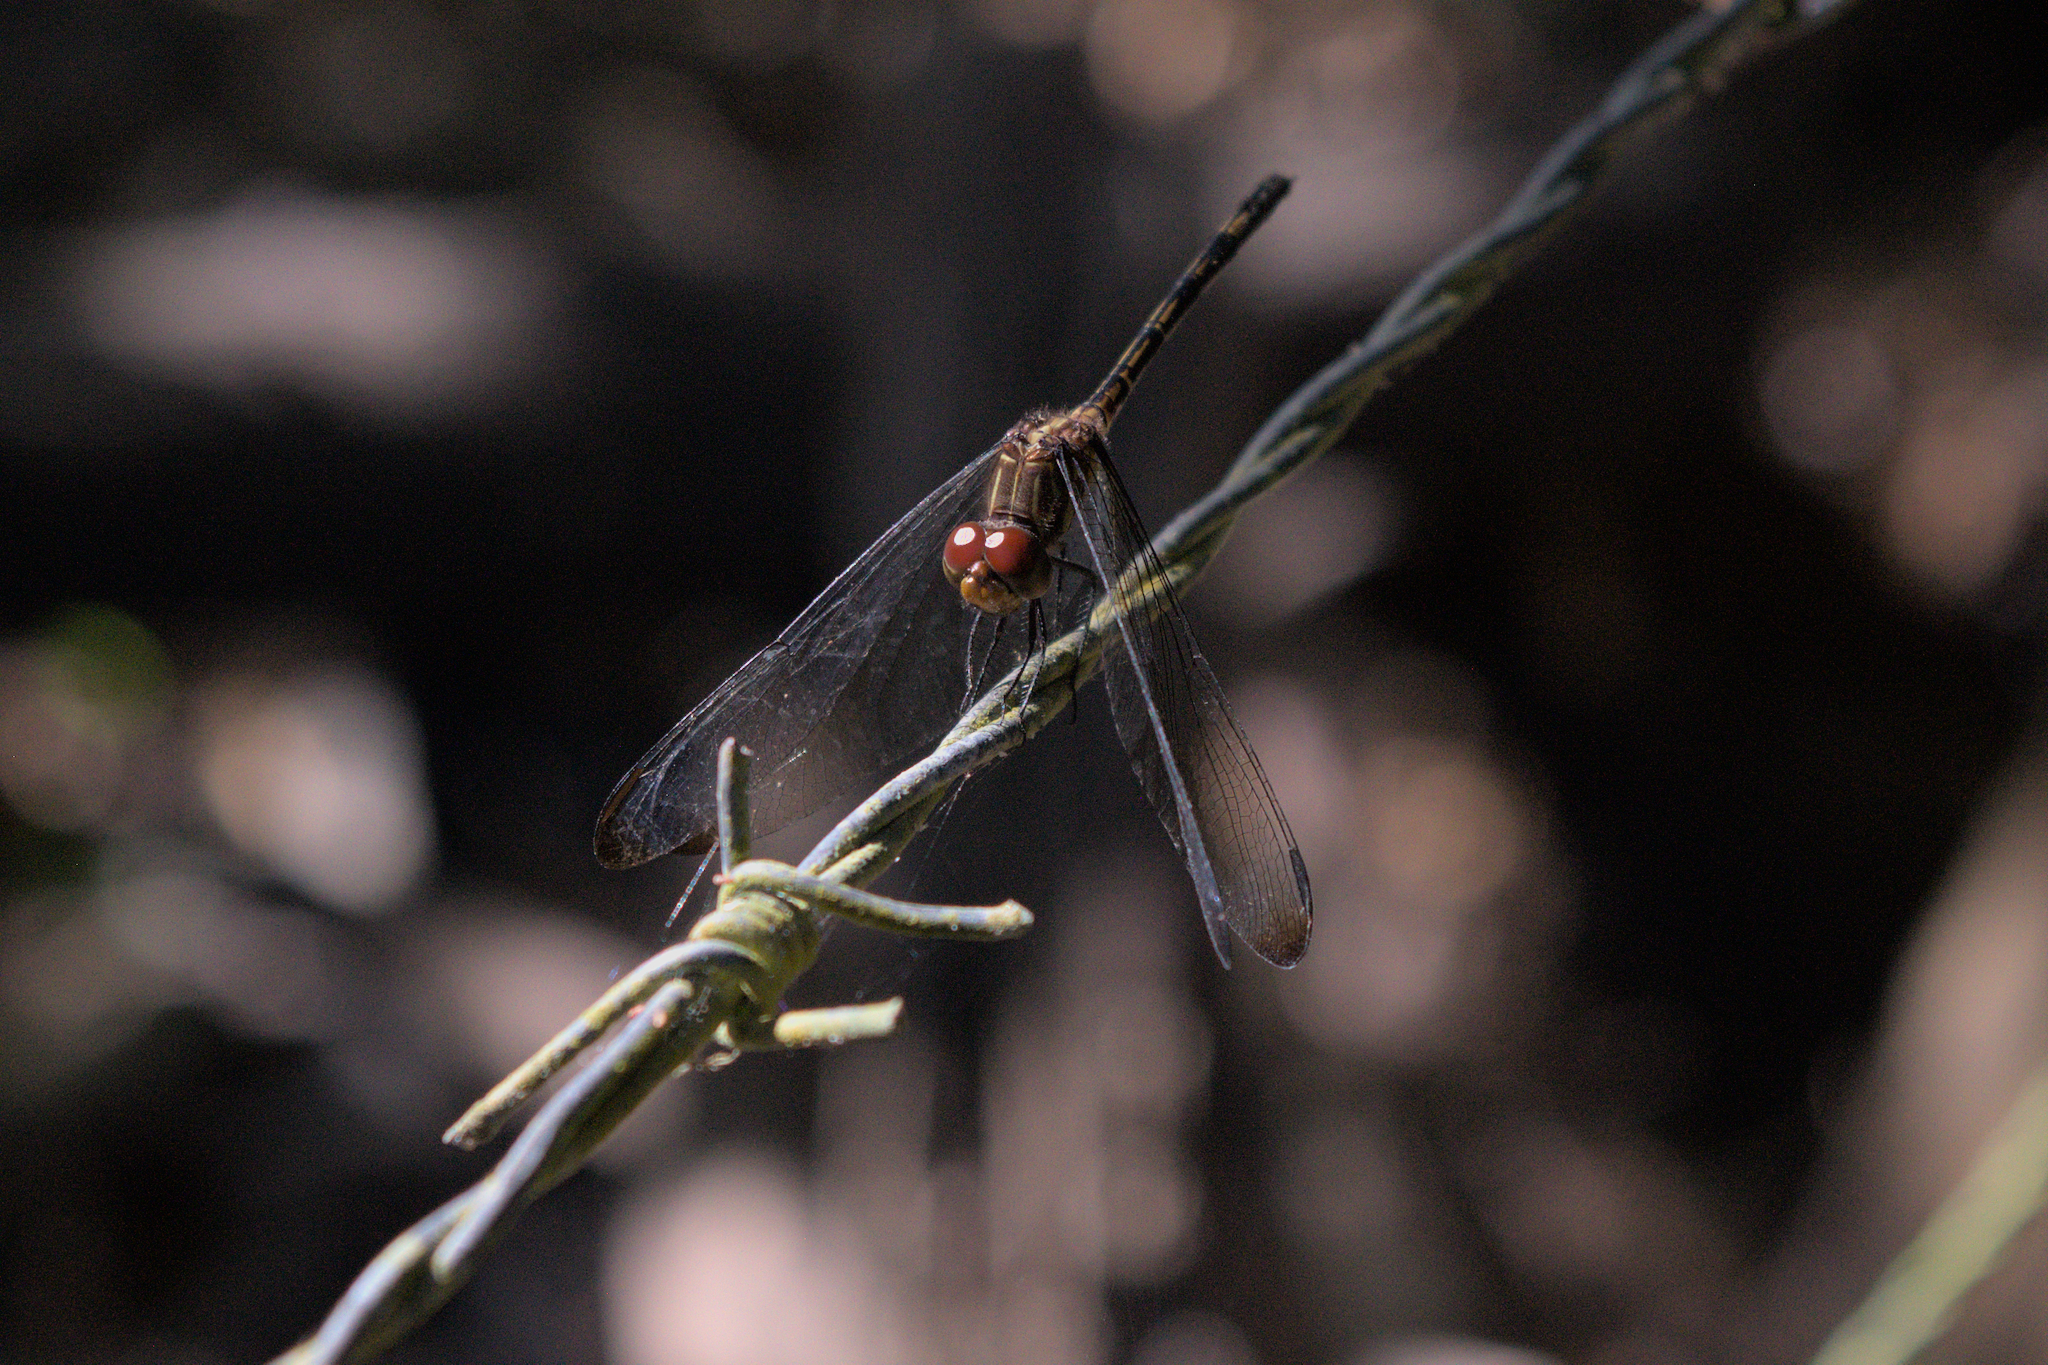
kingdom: Animalia
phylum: Arthropoda
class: Insecta
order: Odonata
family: Libellulidae
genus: Dythemis
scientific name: Dythemis sterilis
